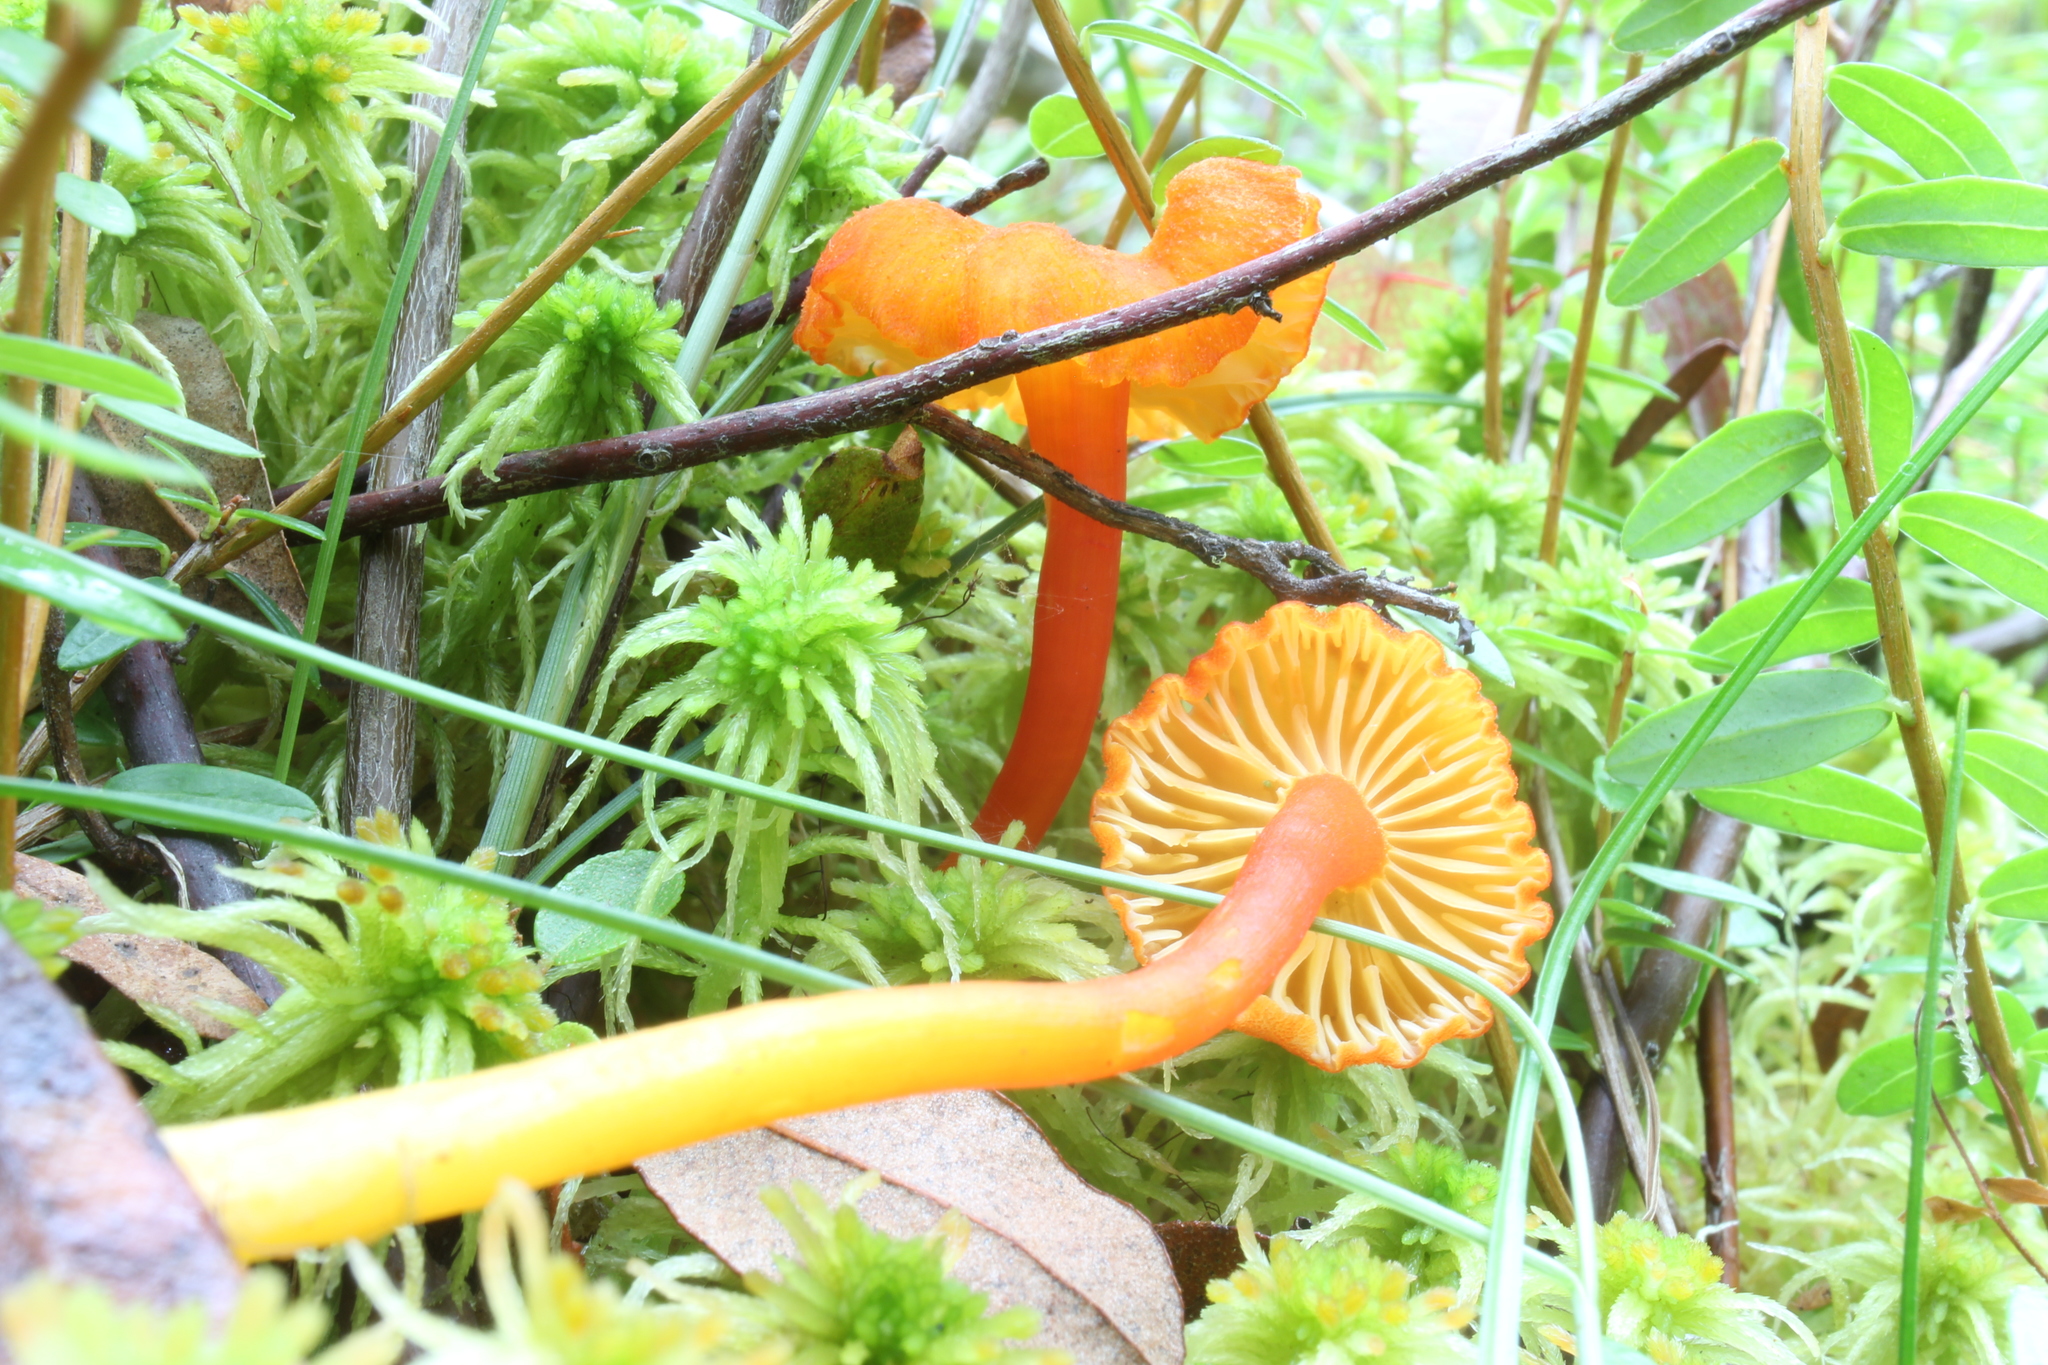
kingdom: Fungi
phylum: Basidiomycota
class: Agaricomycetes
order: Agaricales
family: Hygrophoraceae
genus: Hygrocybe
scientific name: Hygrocybe squamulosa
